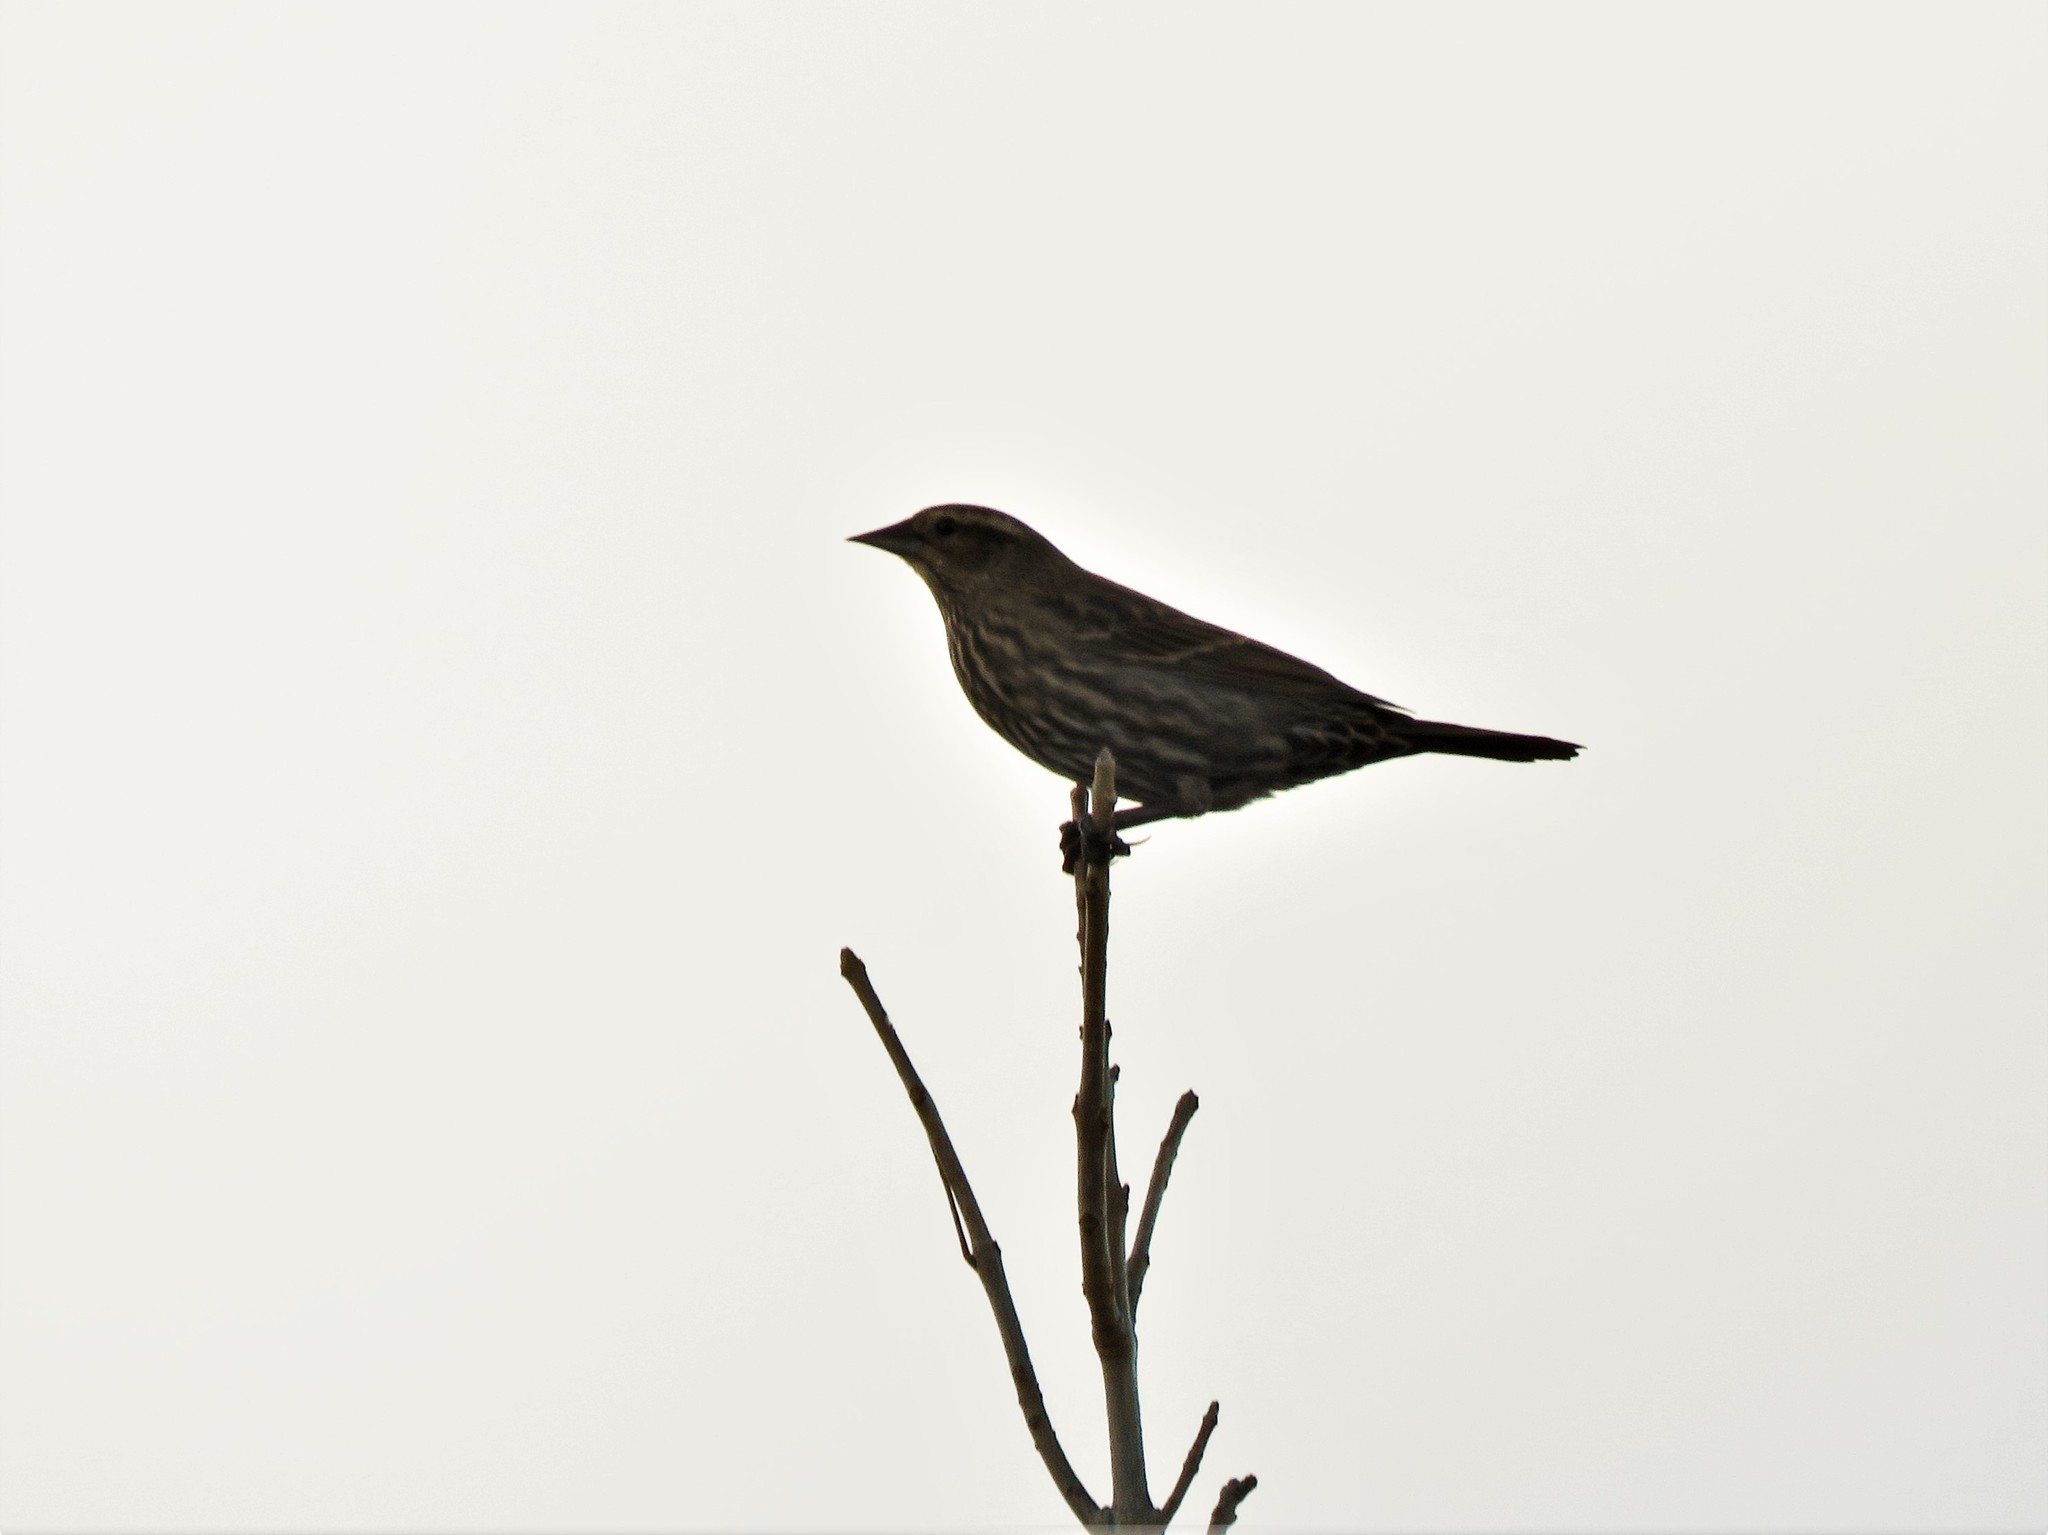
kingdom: Animalia
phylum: Chordata
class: Aves
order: Passeriformes
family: Icteridae
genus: Agelaius
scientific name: Agelaius phoeniceus
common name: Red-winged blackbird
